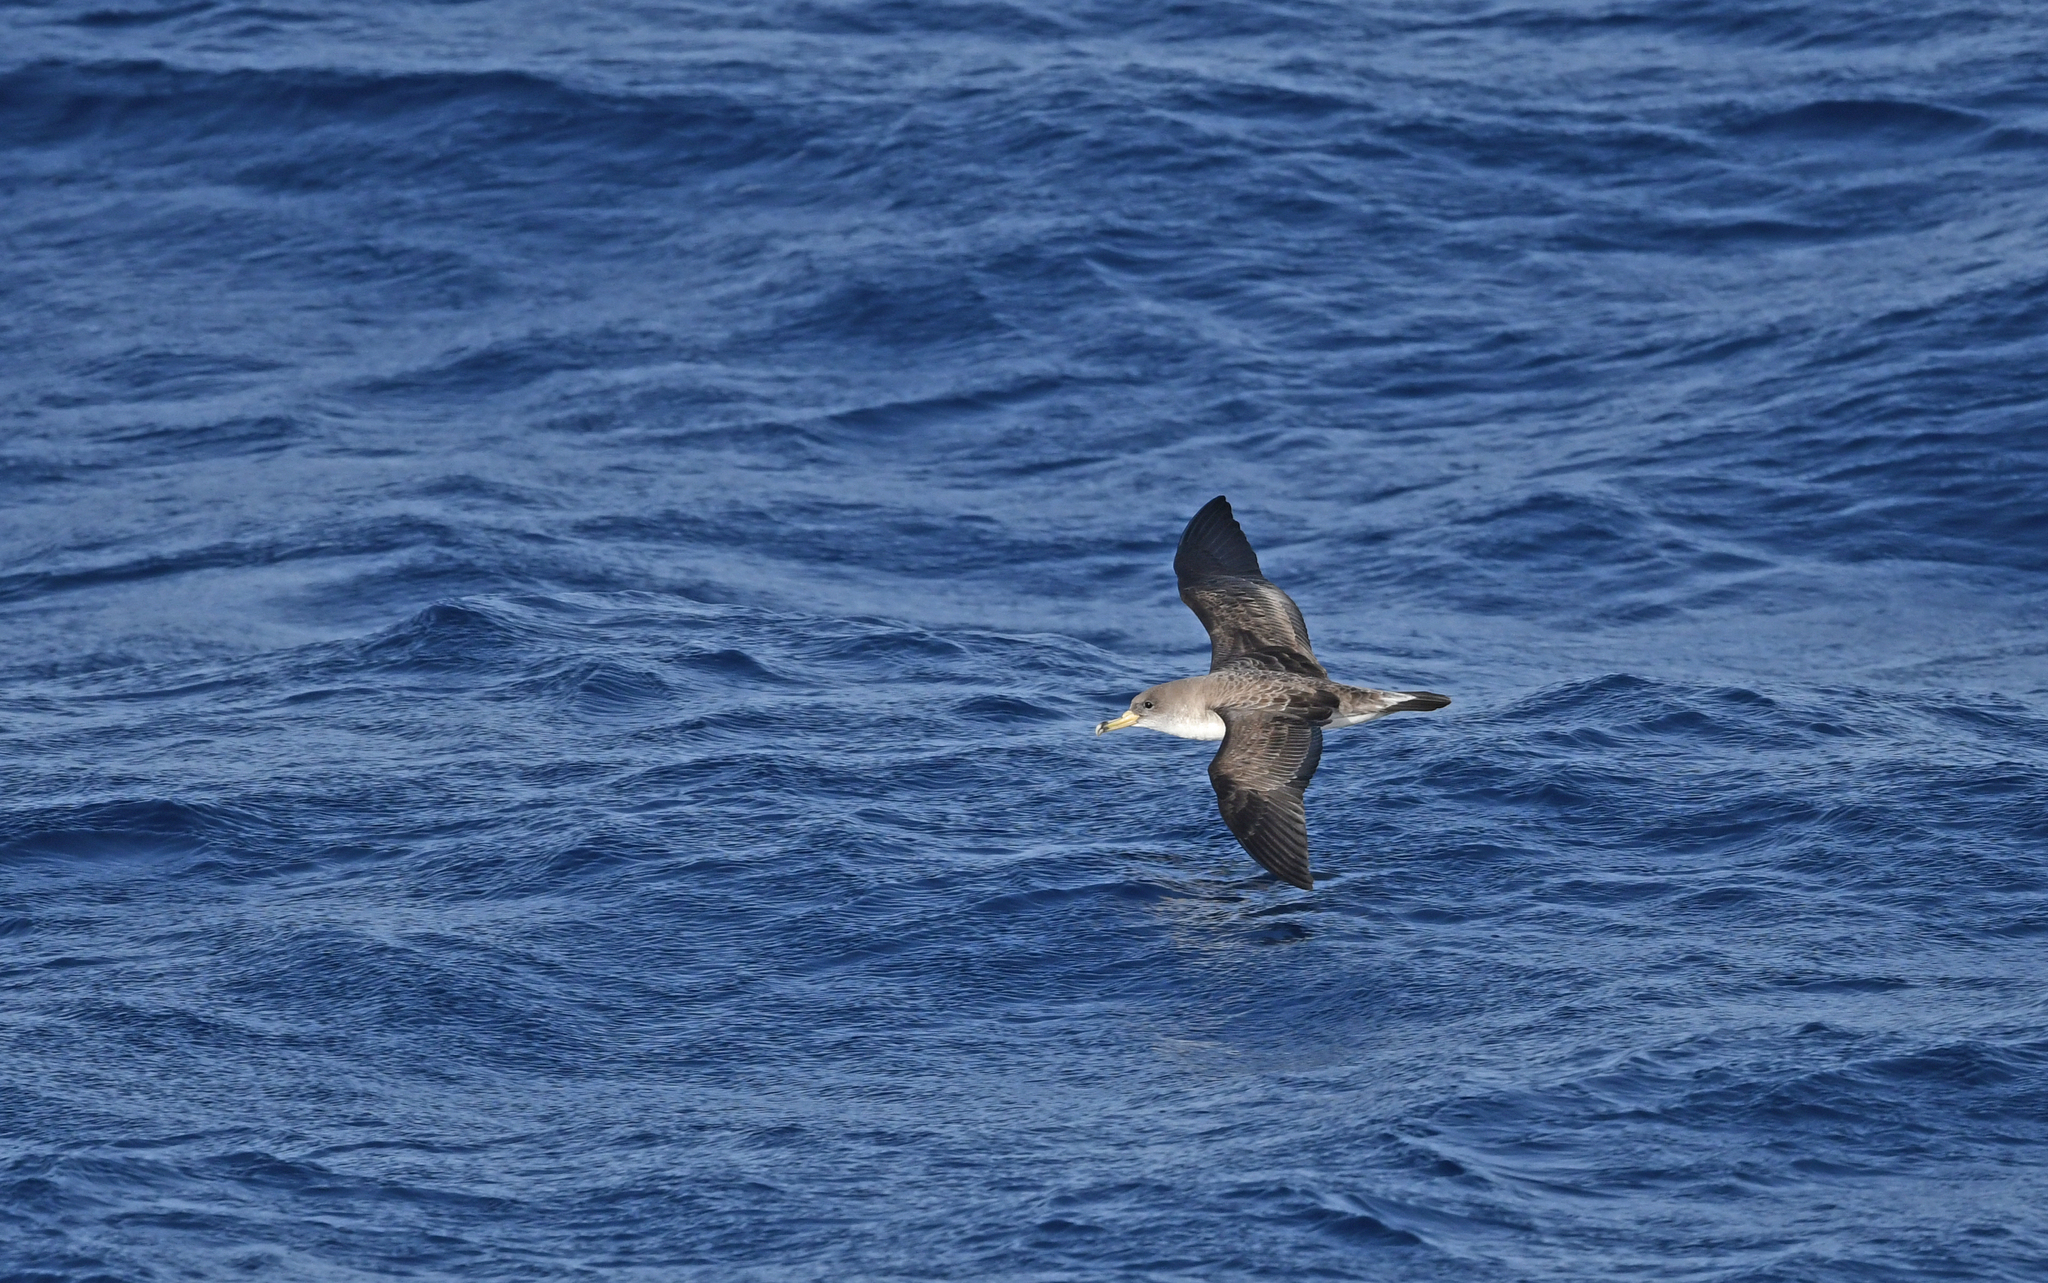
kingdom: Animalia
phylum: Chordata
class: Aves
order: Procellariiformes
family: Procellariidae
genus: Calonectris
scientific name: Calonectris diomedea
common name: Cory's shearwater
